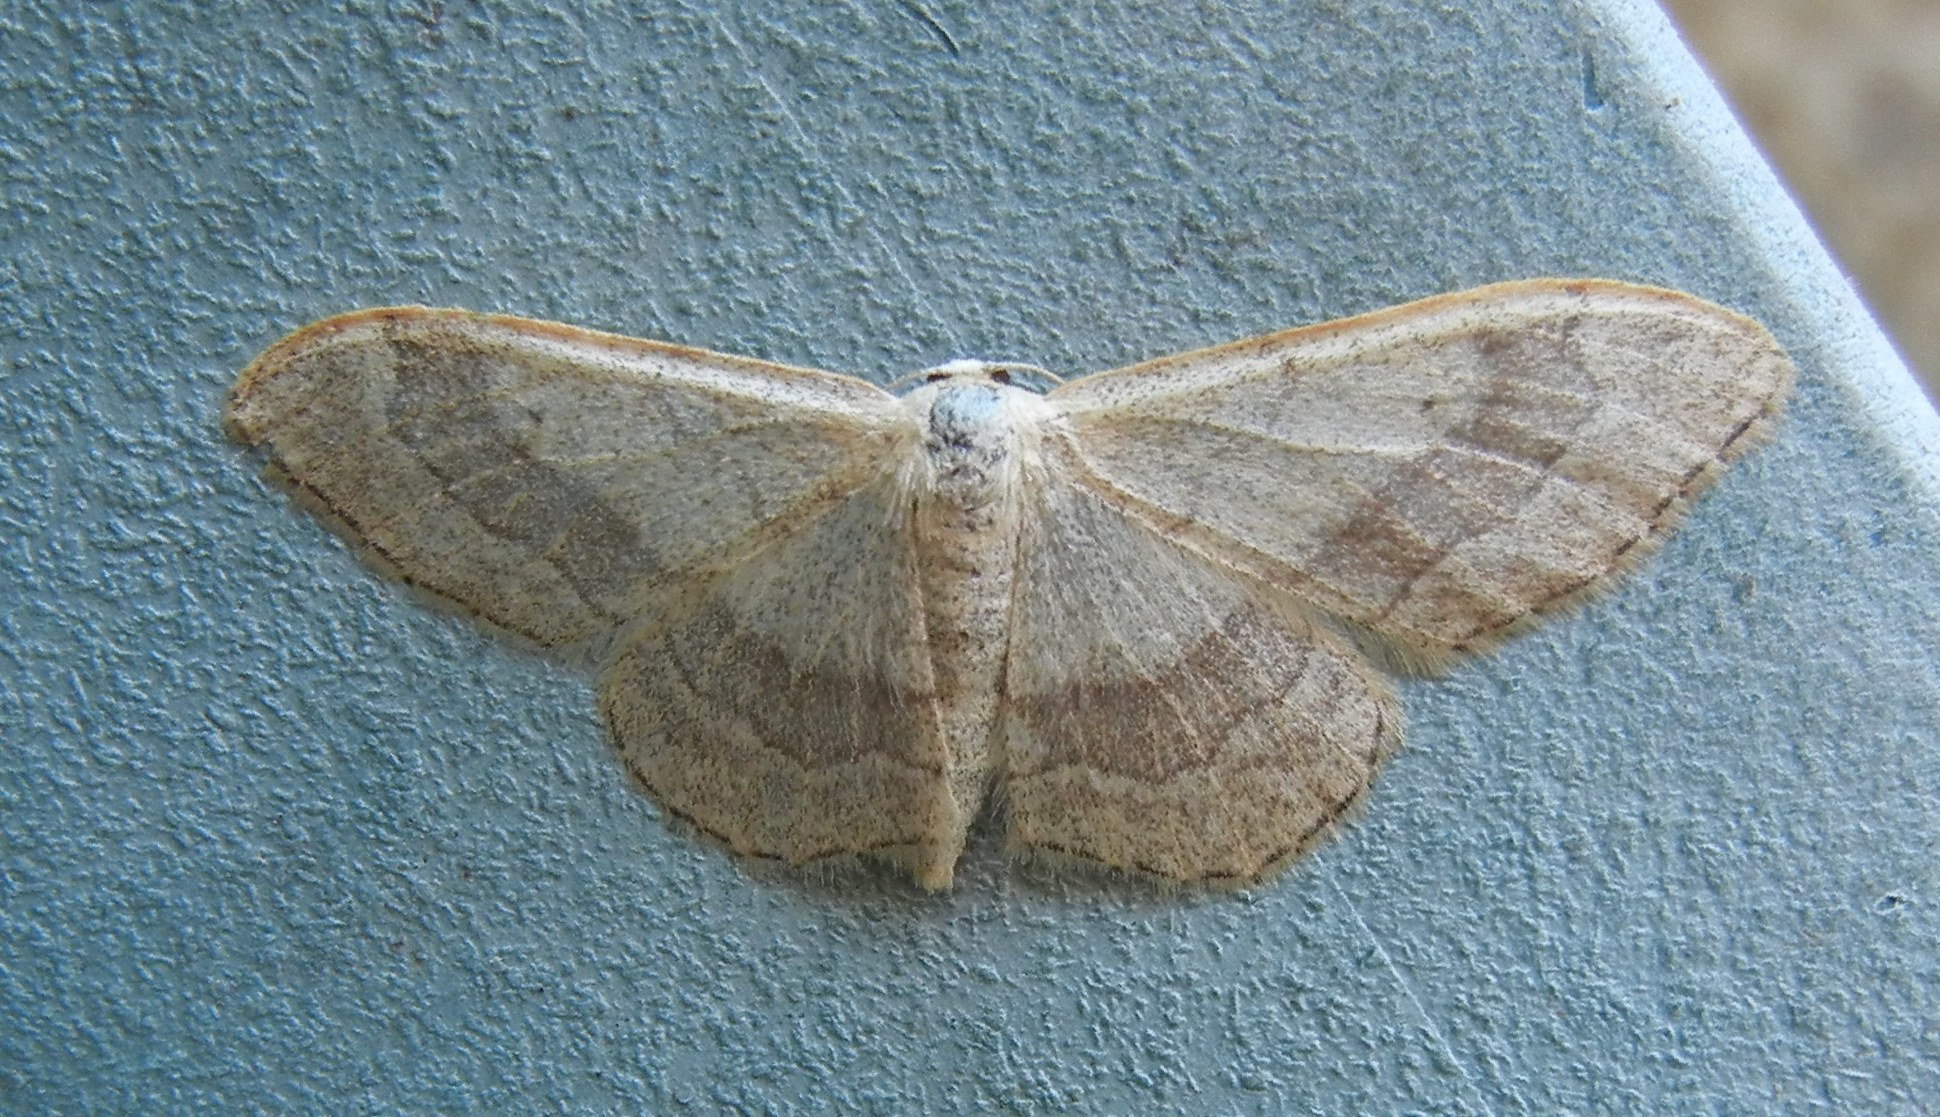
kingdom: Animalia
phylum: Arthropoda
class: Insecta
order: Lepidoptera
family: Geometridae
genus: Idaea
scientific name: Idaea aversata
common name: Riband wave
